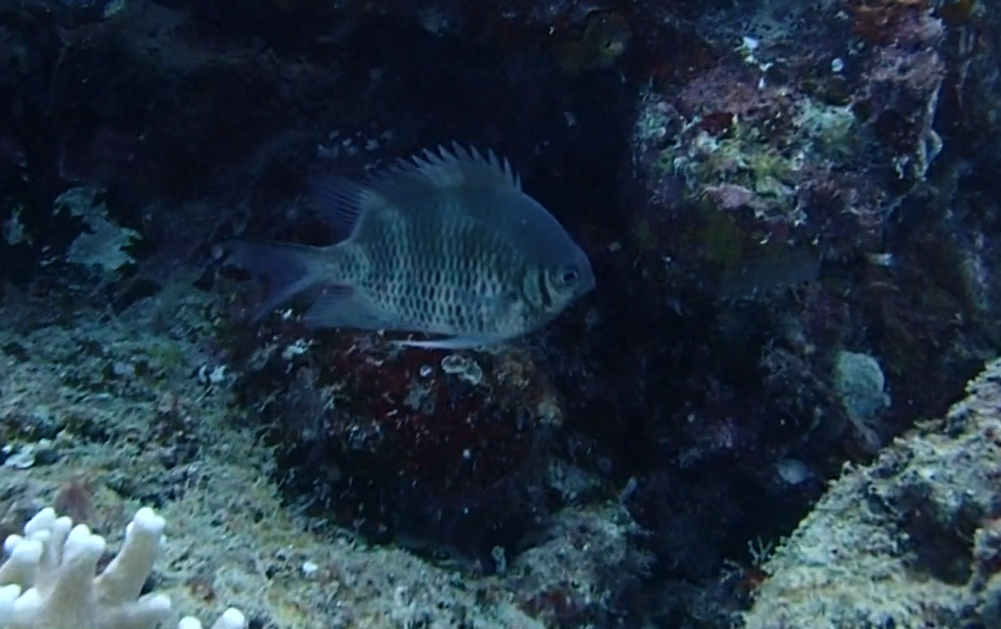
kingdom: Animalia
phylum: Chordata
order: Perciformes
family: Pomacentridae
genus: Amblyglyphidodon
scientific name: Amblyglyphidodon curacao
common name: Staghorn damsel
